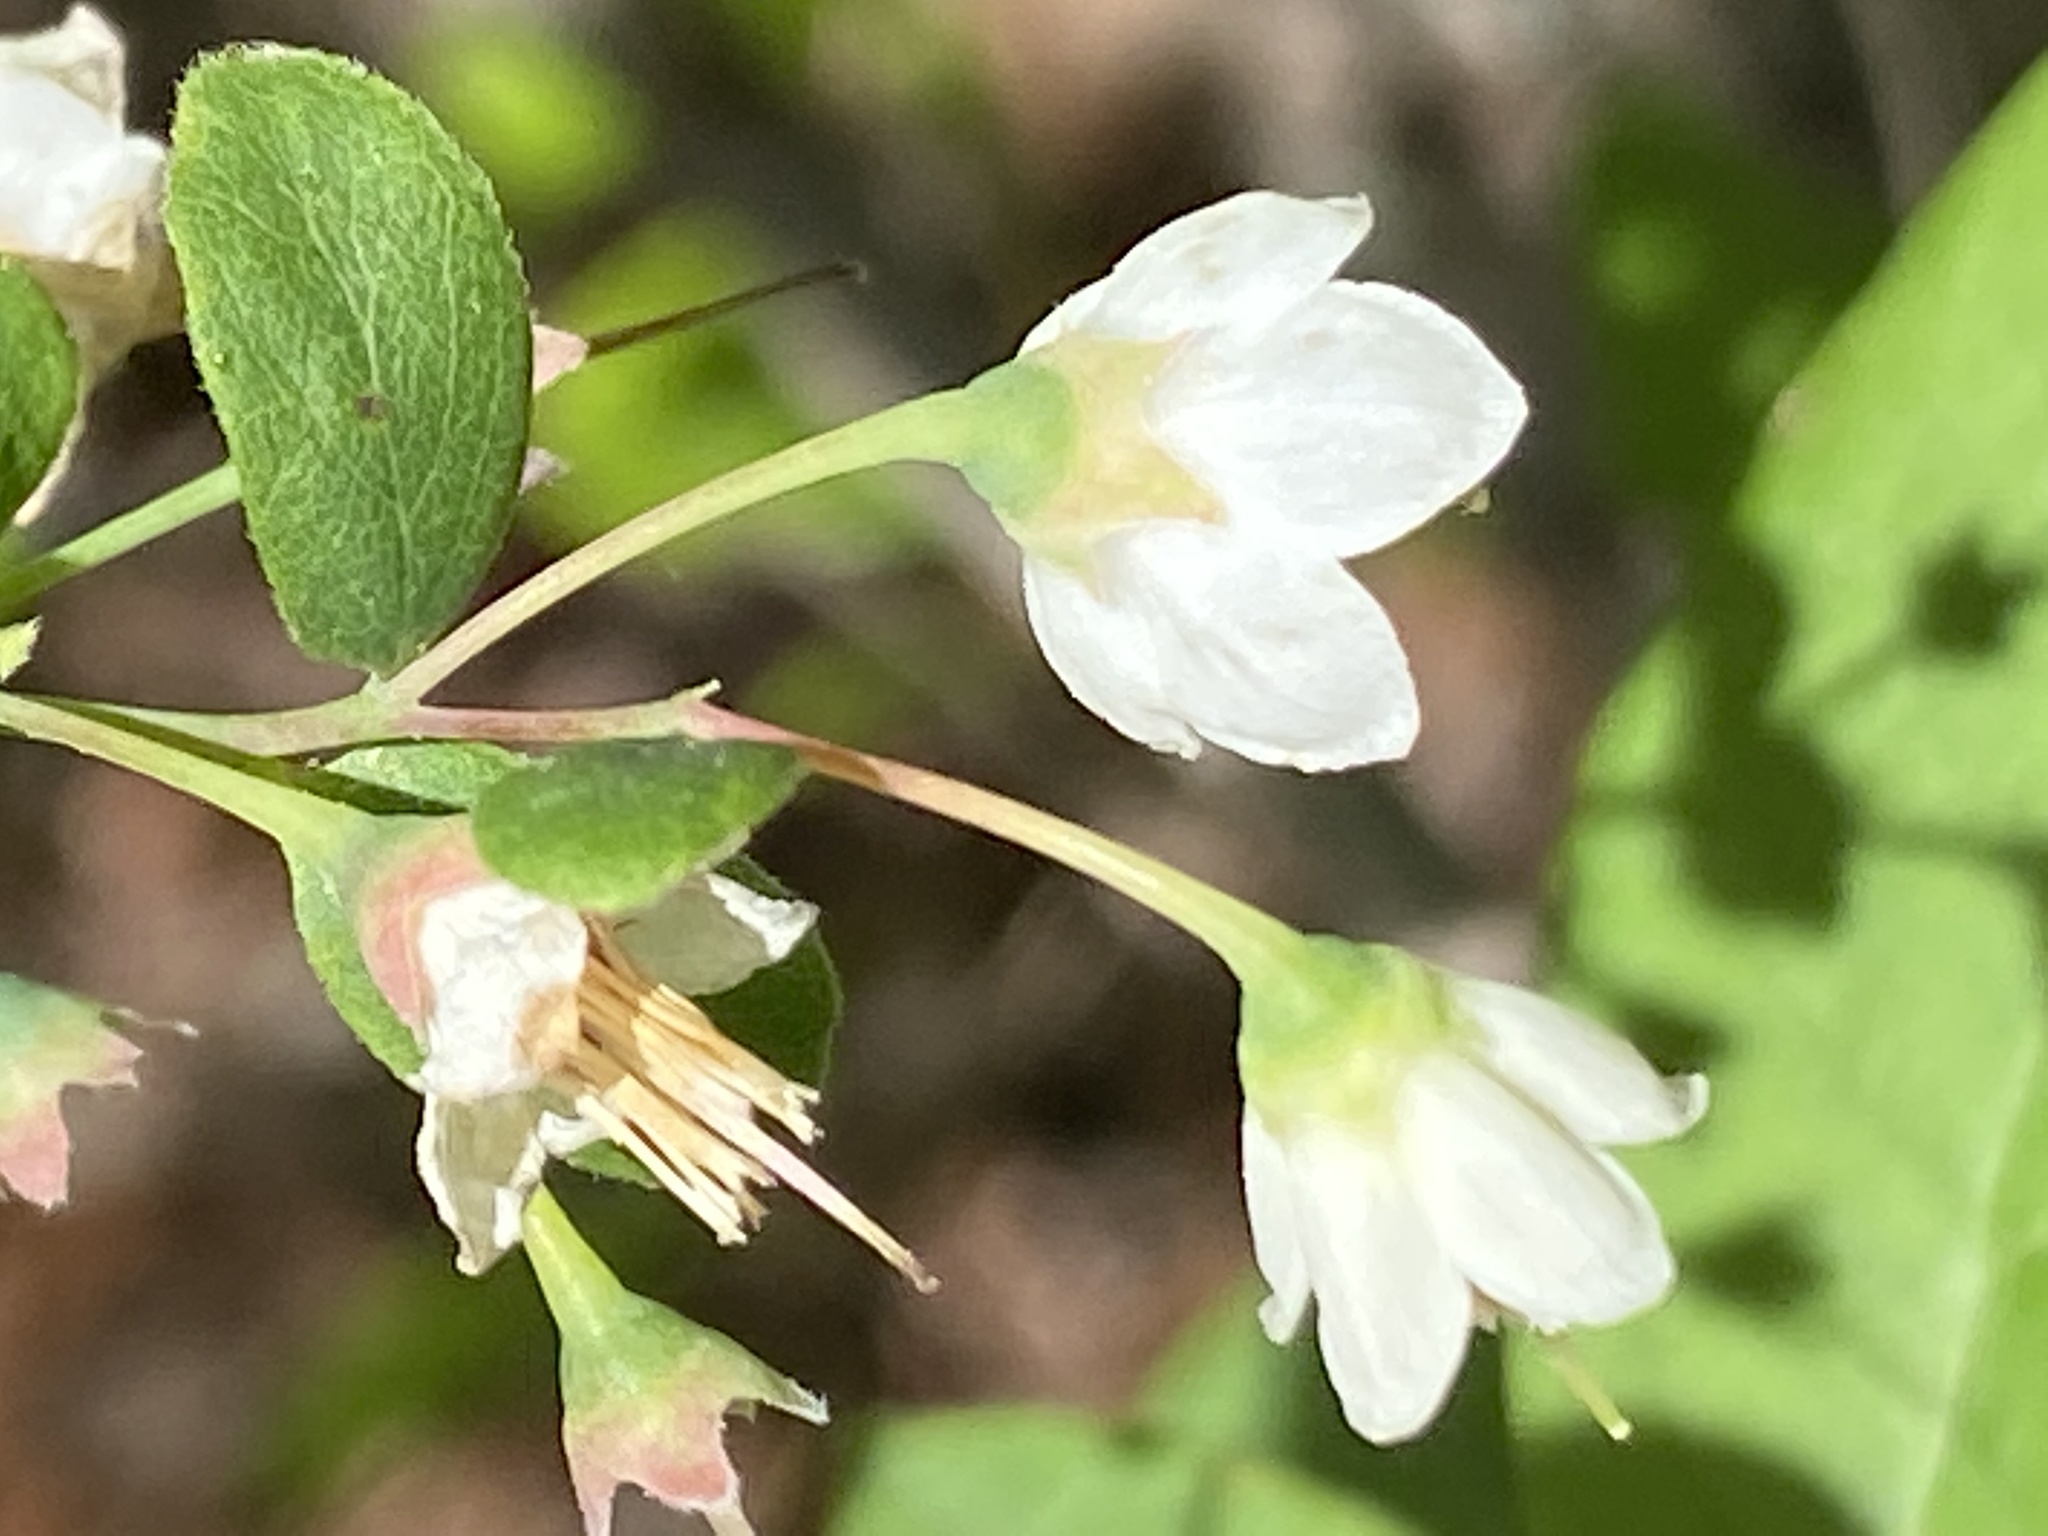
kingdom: Plantae
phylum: Tracheophyta
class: Magnoliopsida
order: Ericales
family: Ericaceae
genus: Vaccinium
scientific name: Vaccinium stamineum
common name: Deerberry
